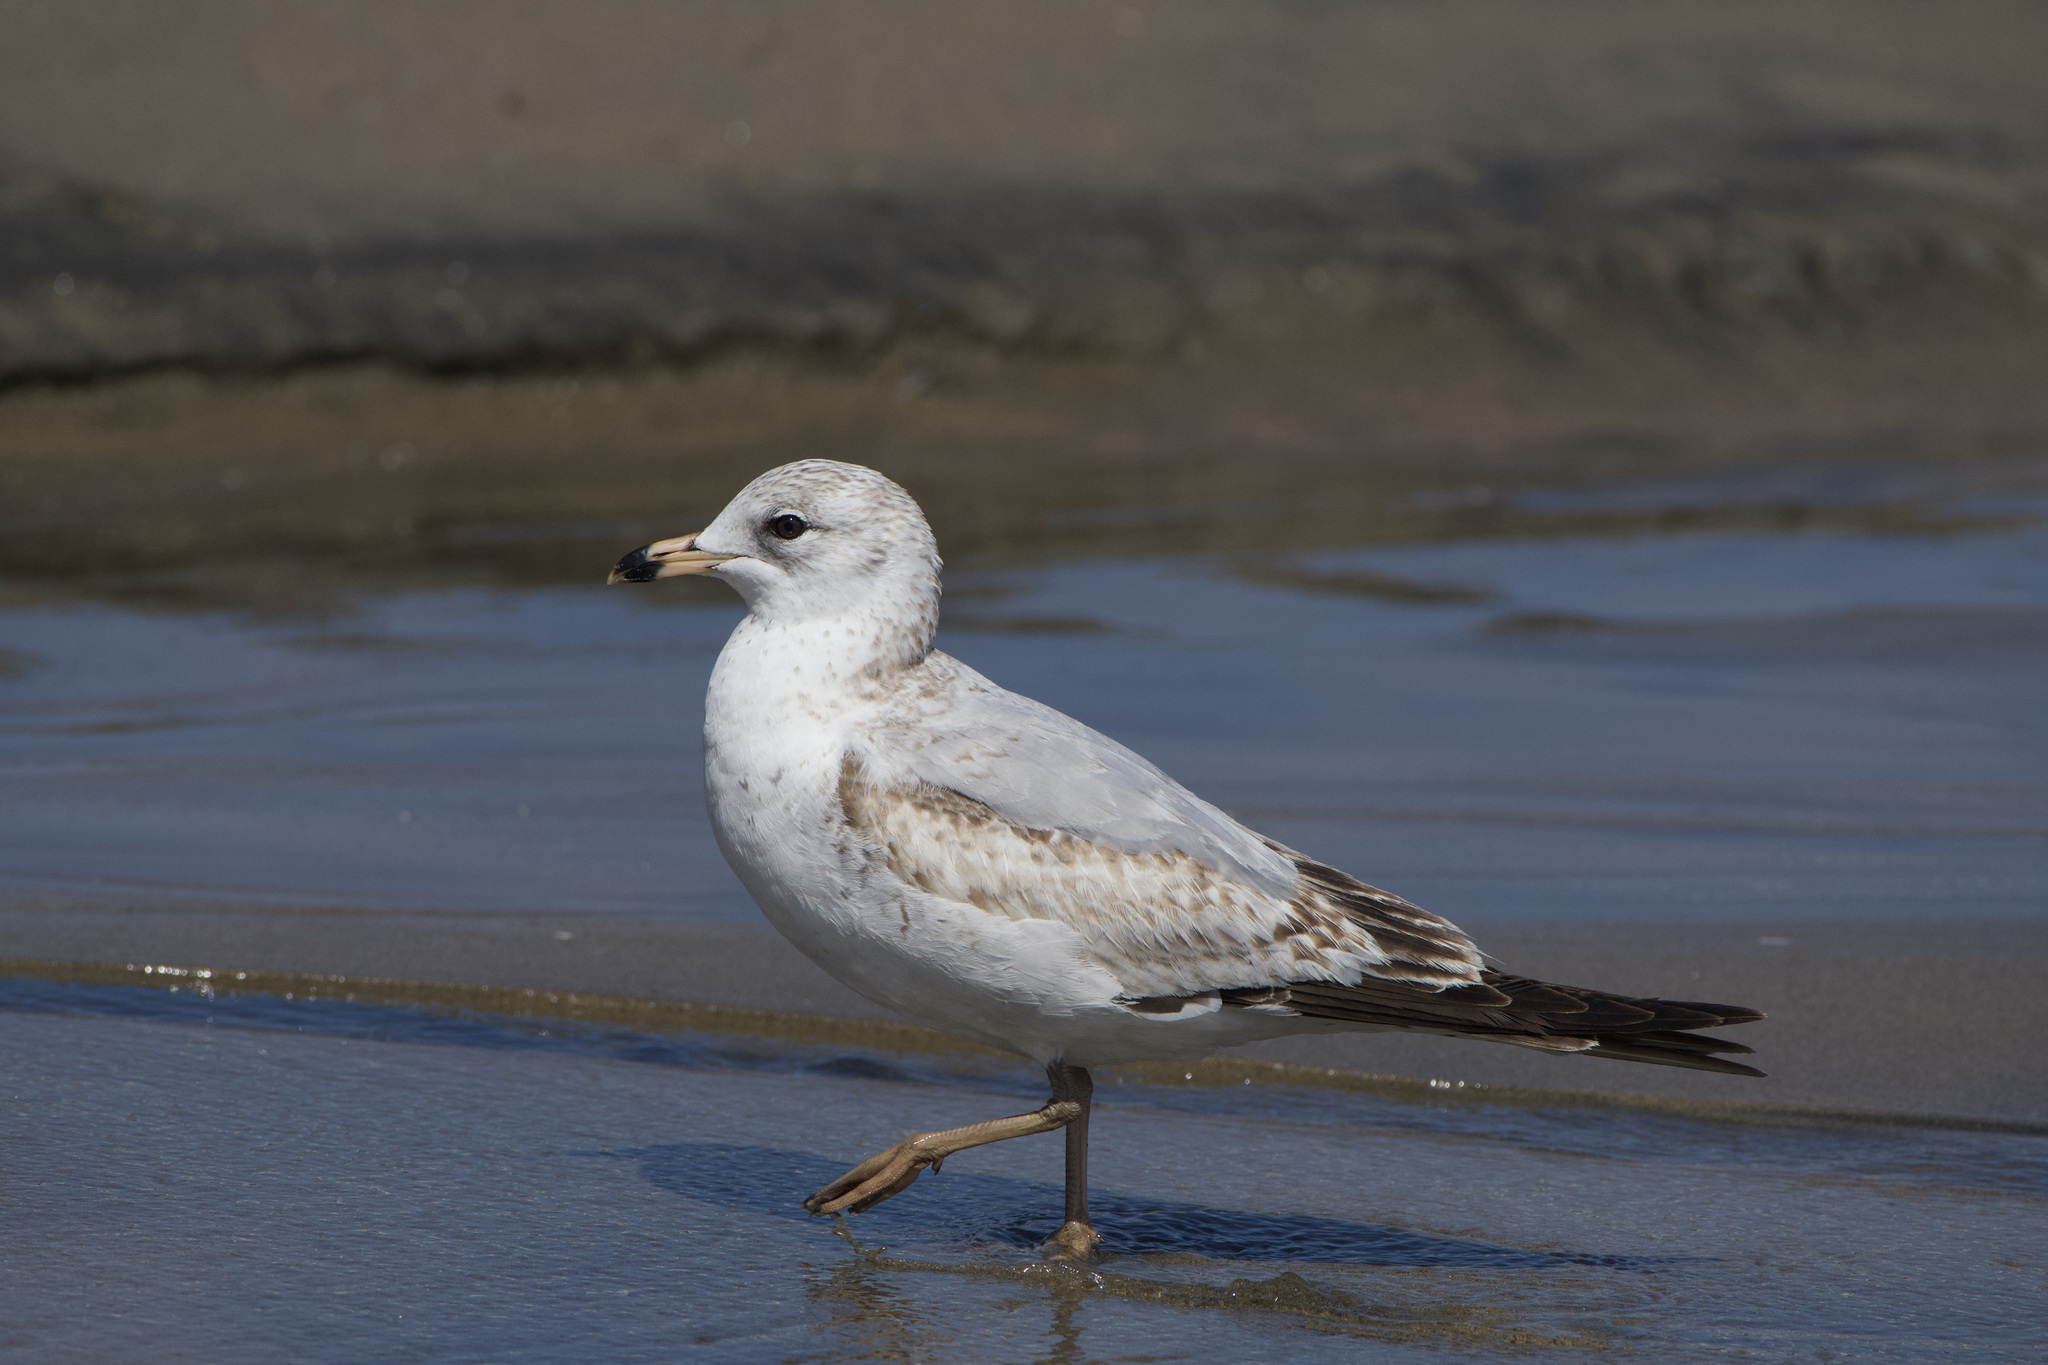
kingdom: Animalia
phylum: Chordata
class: Aves
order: Charadriiformes
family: Laridae
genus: Larus
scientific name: Larus delawarensis
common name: Ring-billed gull
